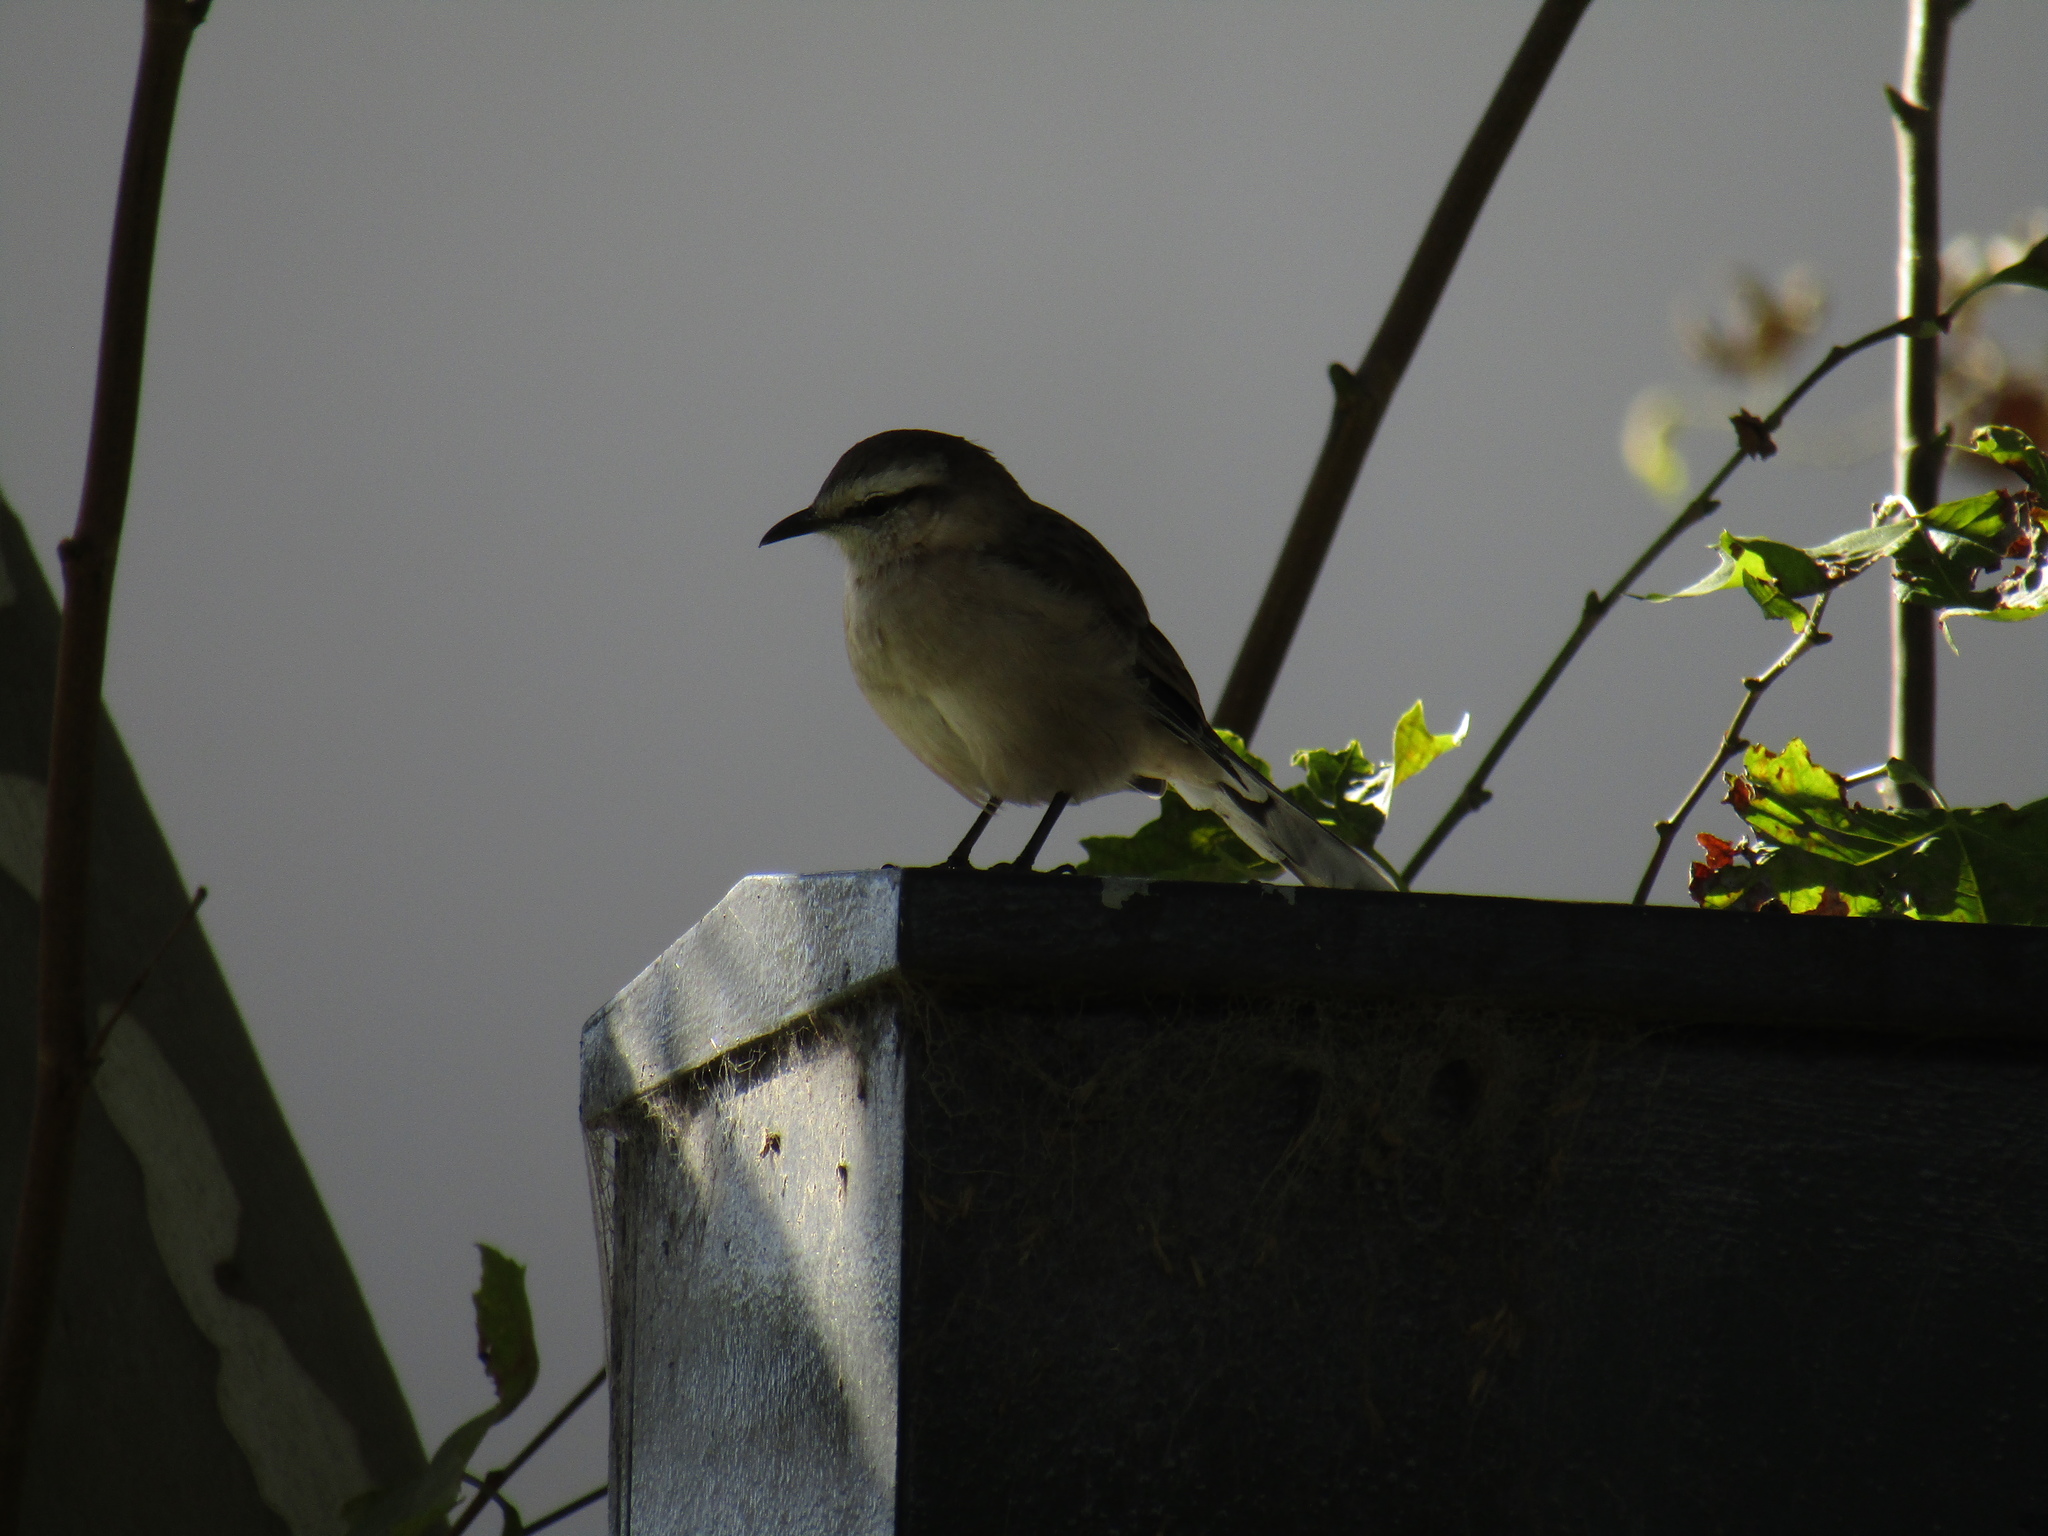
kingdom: Animalia
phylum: Chordata
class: Aves
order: Passeriformes
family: Mimidae
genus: Mimus
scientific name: Mimus saturninus
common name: Chalk-browed mockingbird
